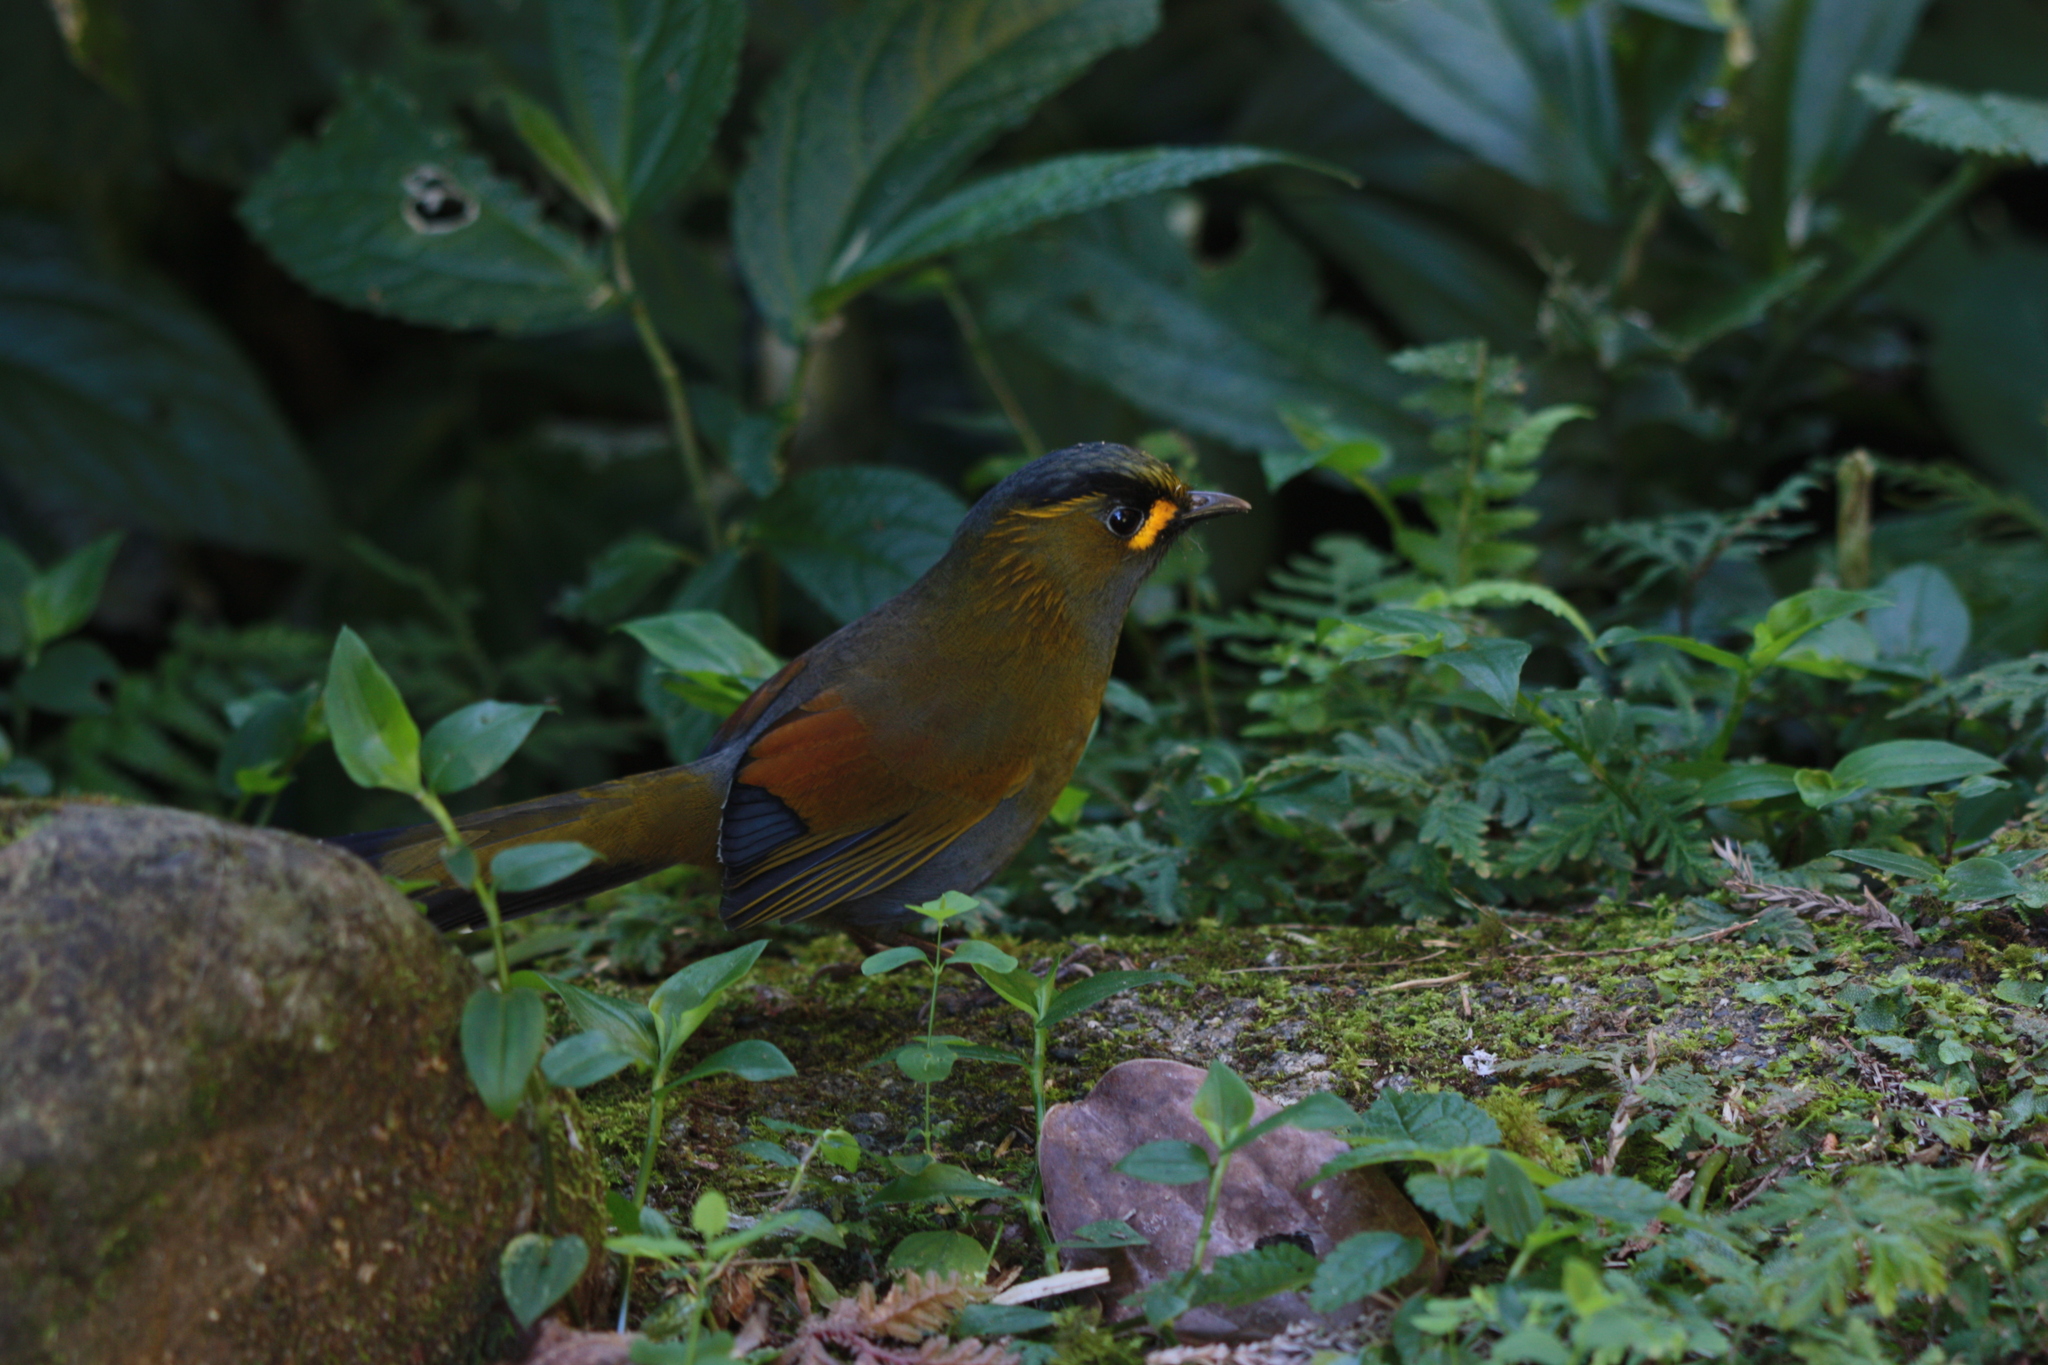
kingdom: Animalia
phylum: Chordata
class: Aves
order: Passeriformes
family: Leiothrichidae
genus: Liocichla
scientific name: Liocichla steerii
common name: Steere's liocichla
